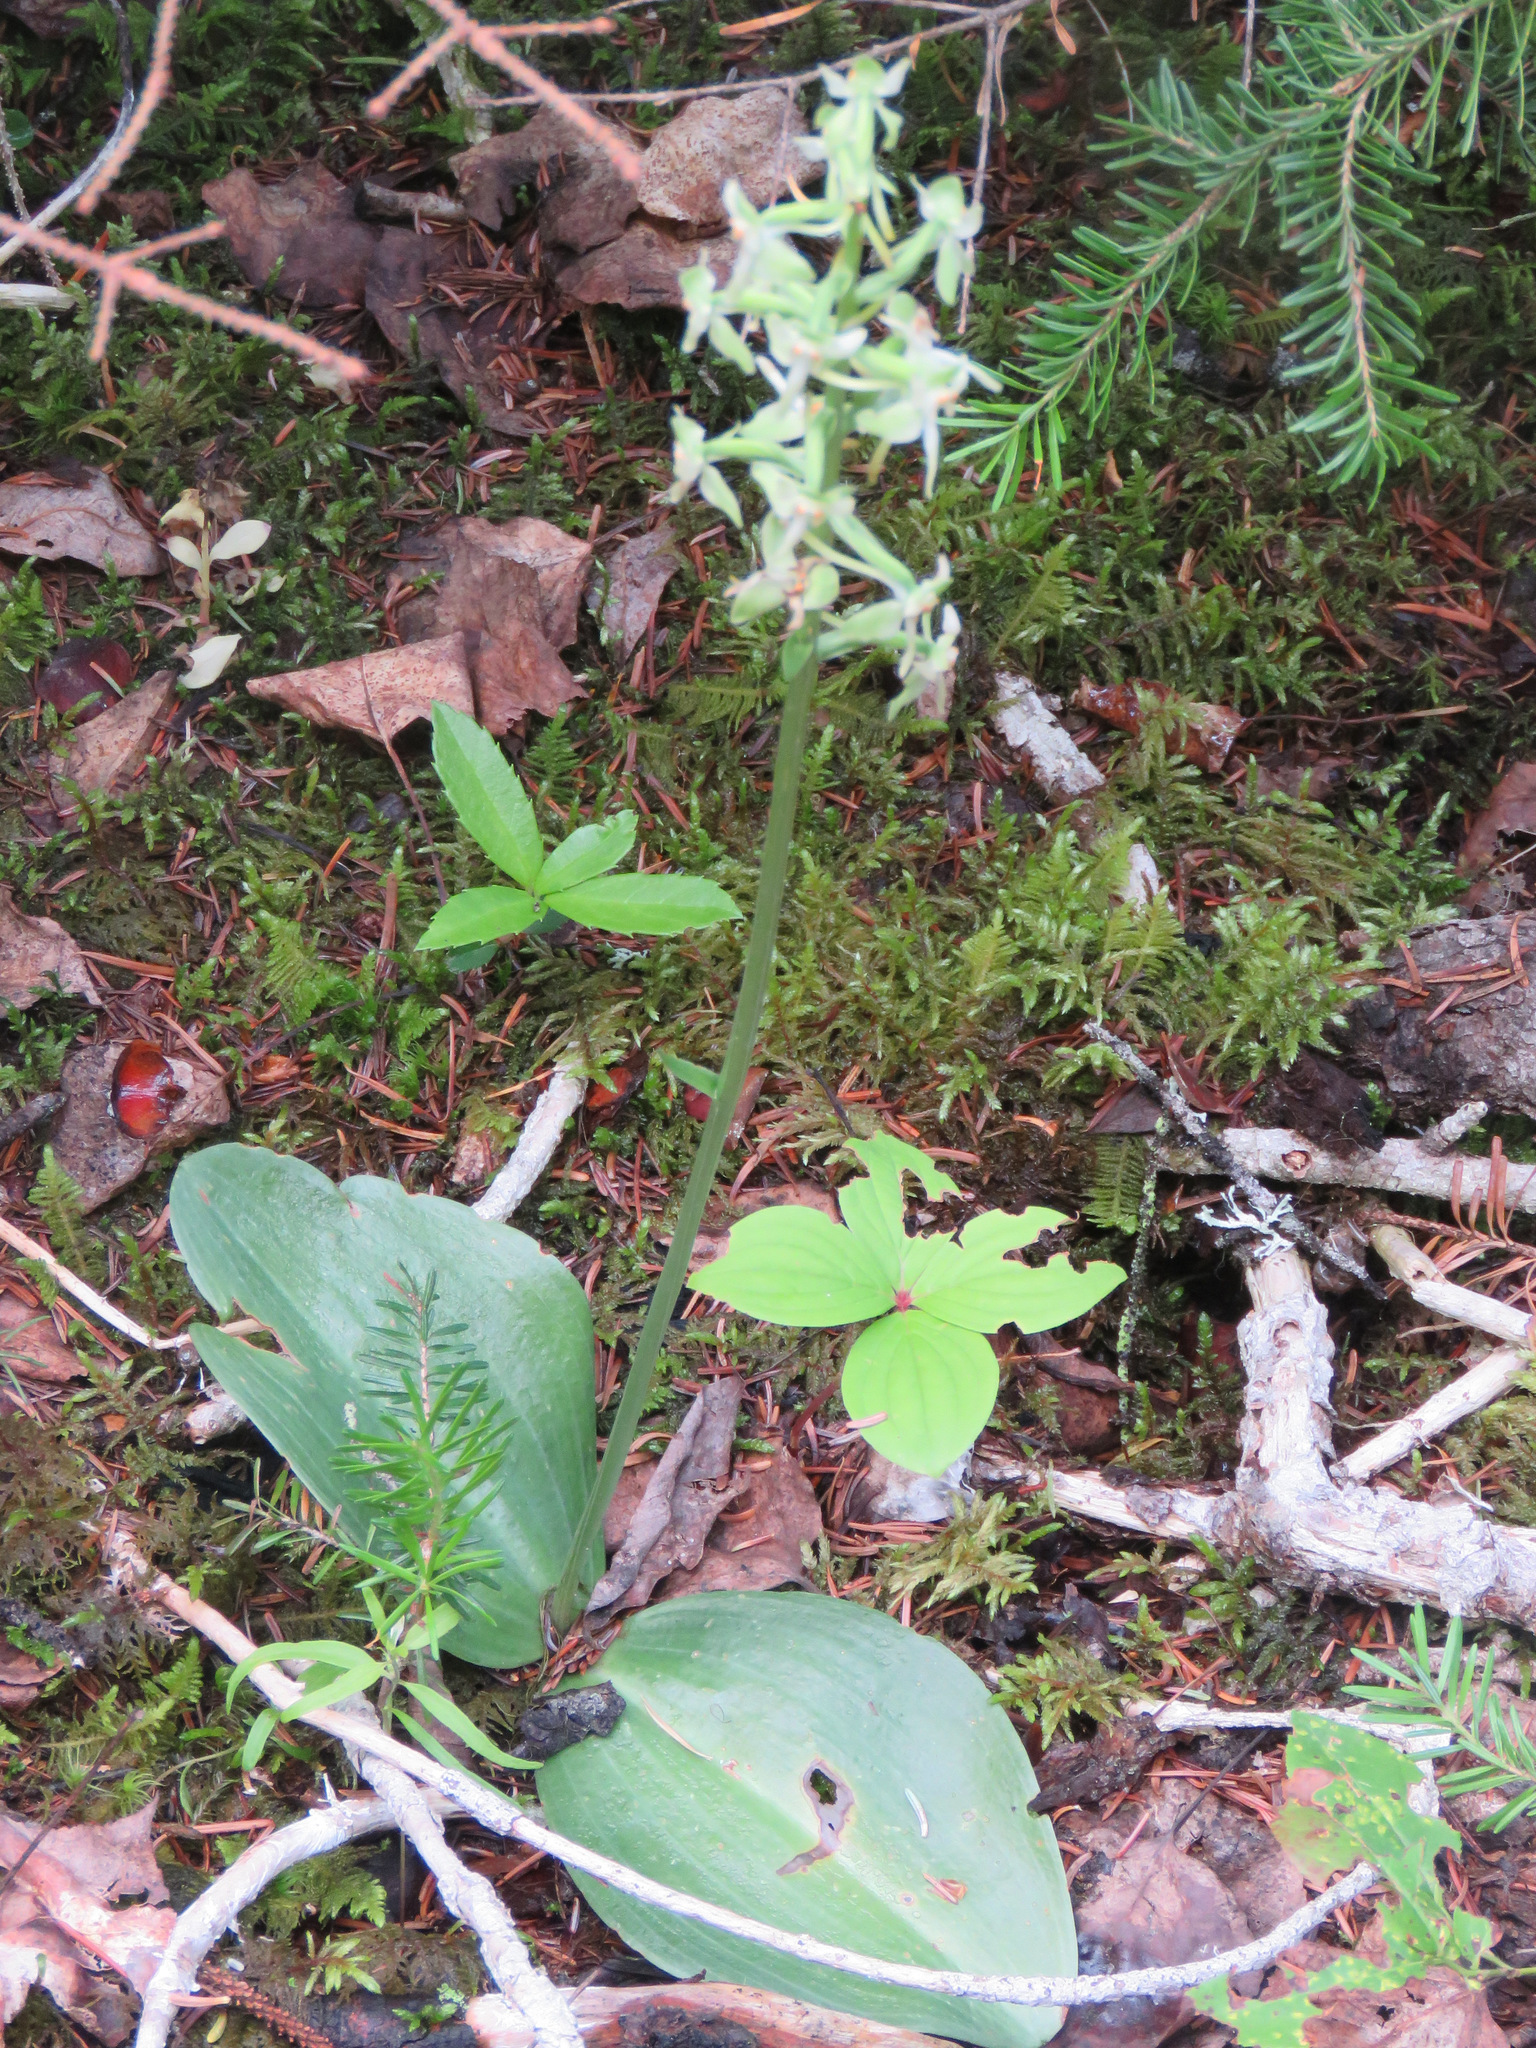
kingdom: Plantae
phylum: Tracheophyta
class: Liliopsida
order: Asparagales
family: Orchidaceae
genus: Platanthera
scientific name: Platanthera orbiculata
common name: Large round-leaved orchid
